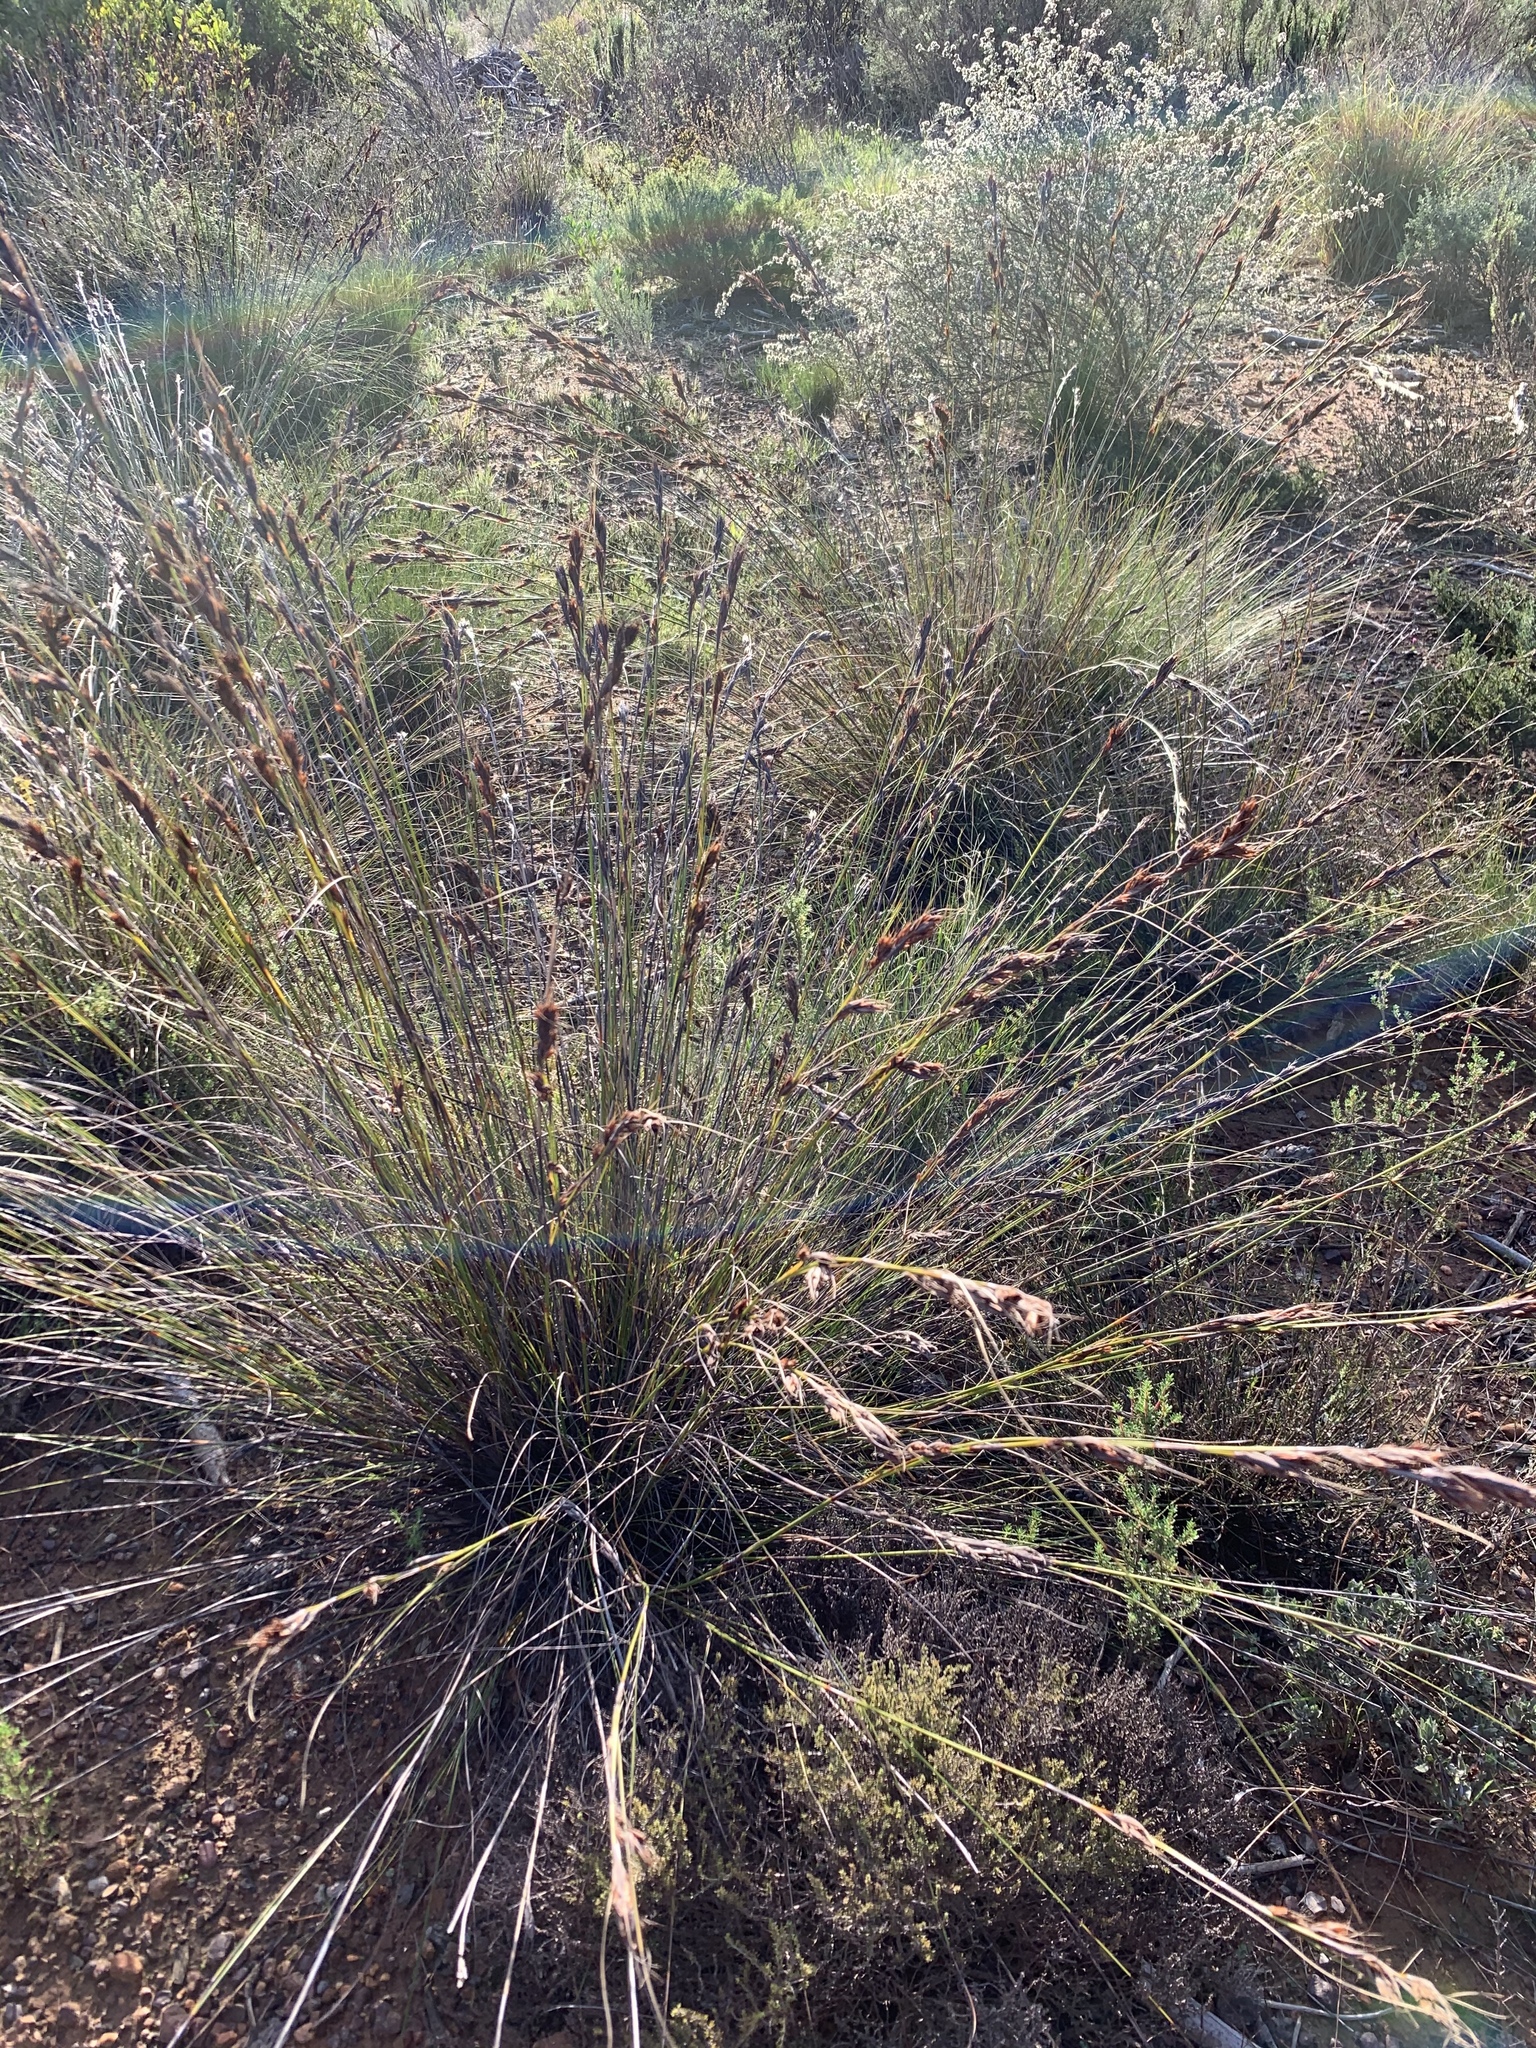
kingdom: Plantae
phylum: Tracheophyta
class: Liliopsida
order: Poales
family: Cyperaceae
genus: Tetraria
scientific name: Tetraria ustulata
